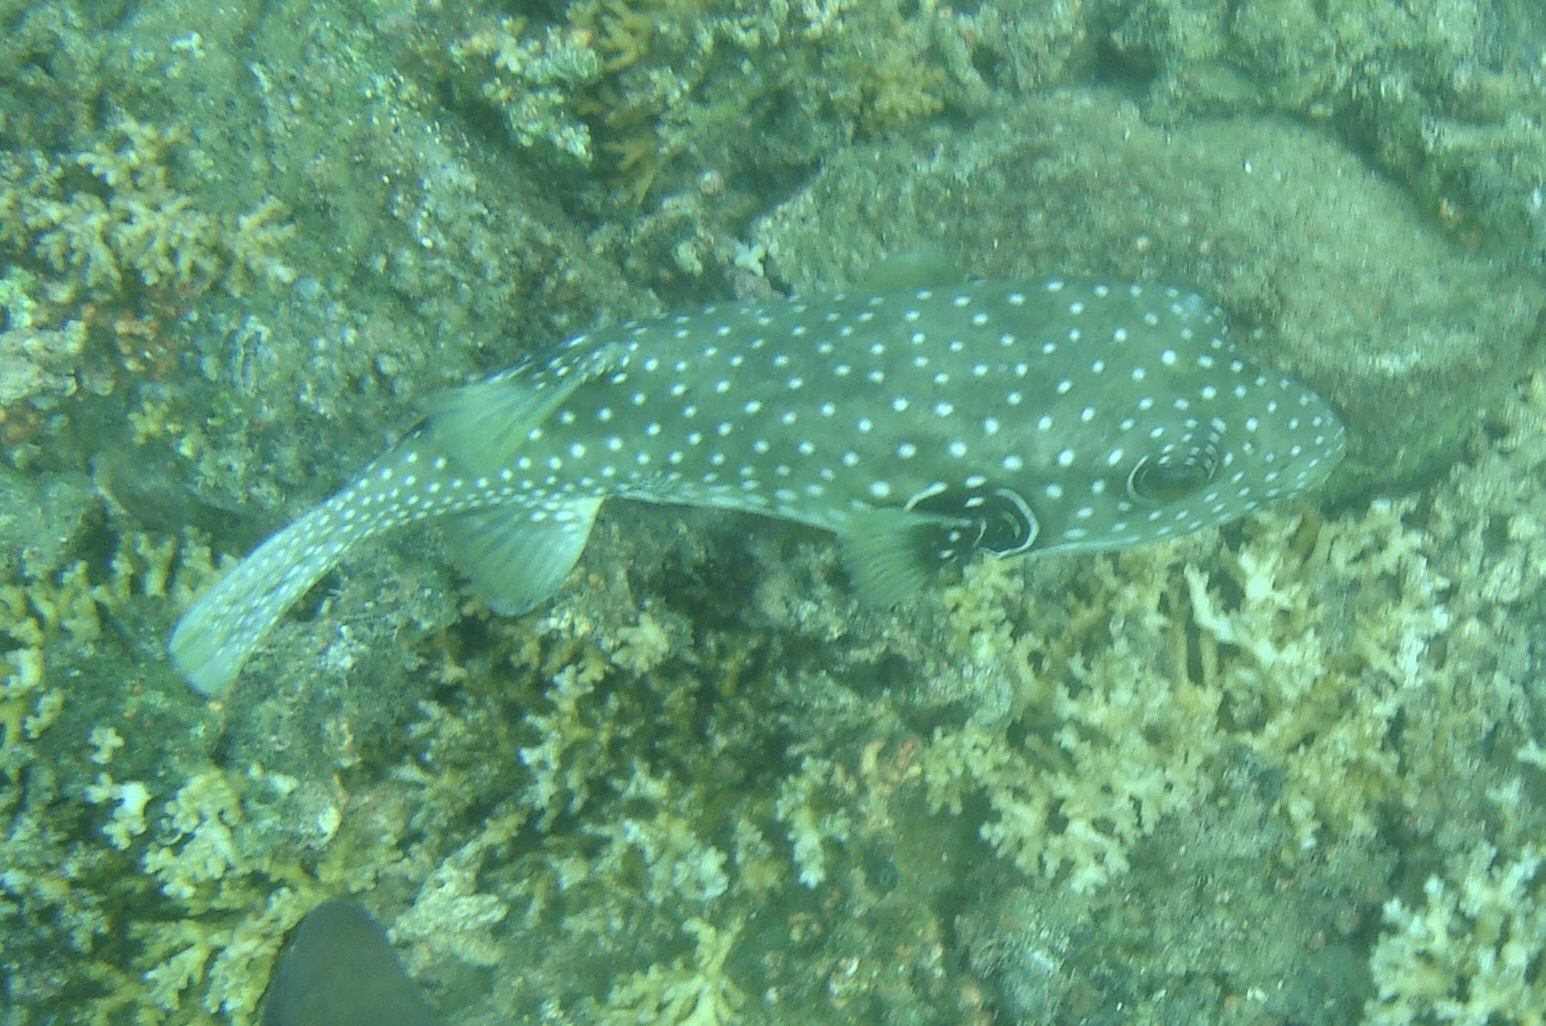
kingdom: Animalia
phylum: Chordata
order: Tetraodontiformes
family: Tetraodontidae
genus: Arothron
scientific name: Arothron hispidus
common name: Stripebelly puffer
